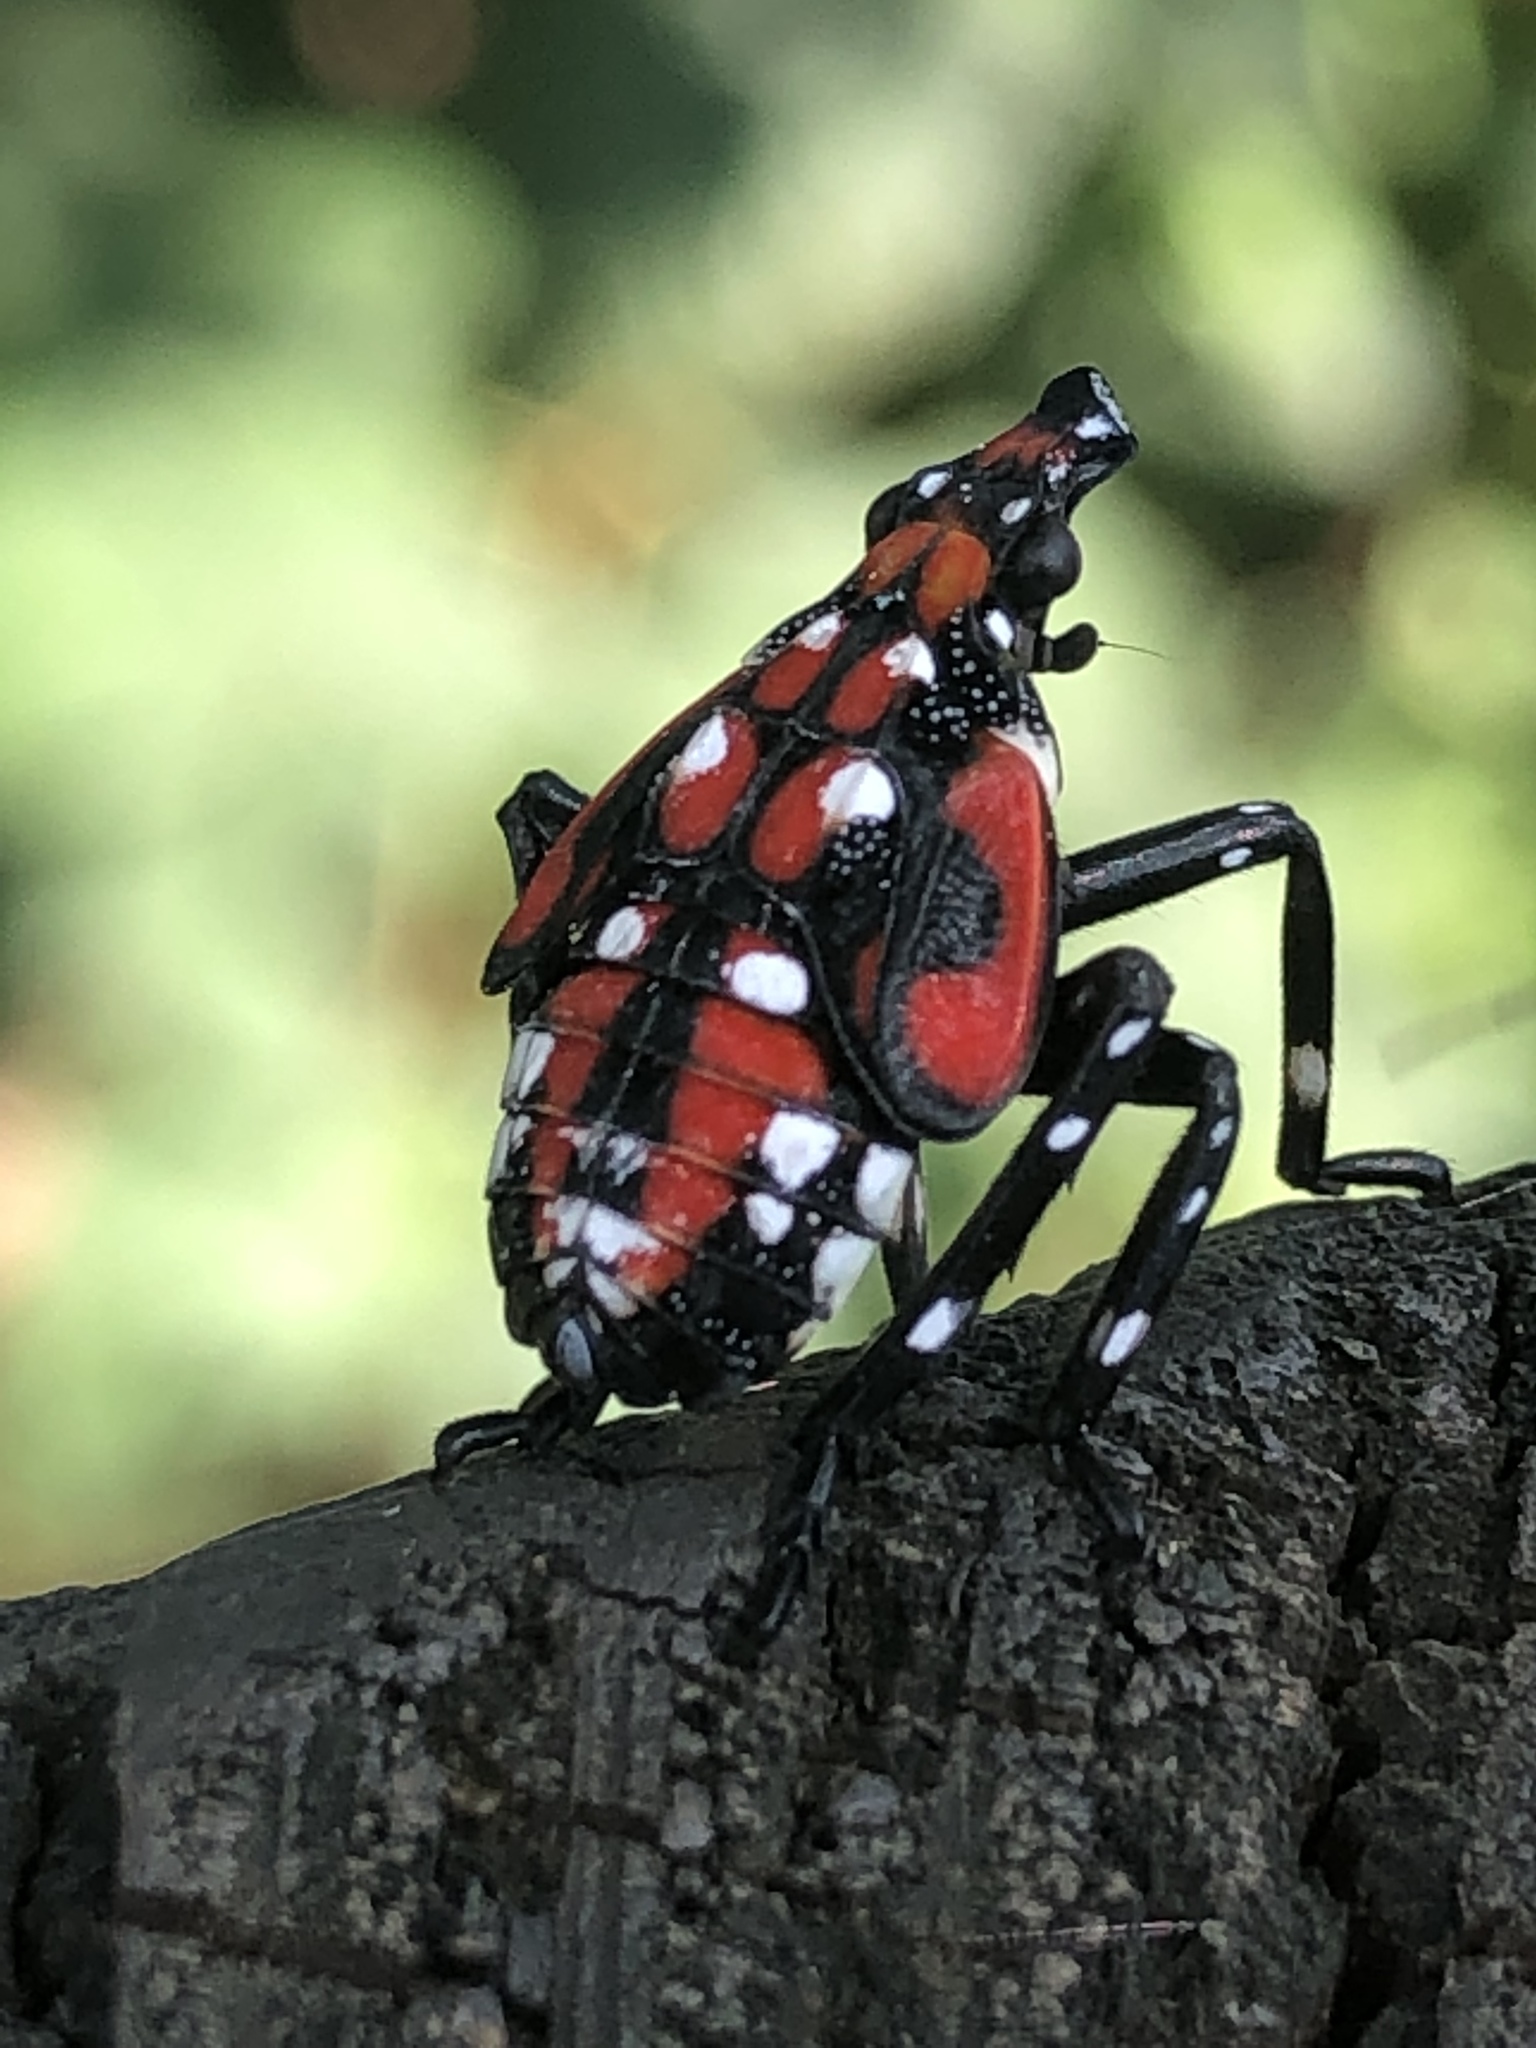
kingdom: Animalia
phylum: Arthropoda
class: Insecta
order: Hemiptera
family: Fulgoridae
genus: Lycorma
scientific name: Lycorma delicatula
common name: Spotted lanternfly
